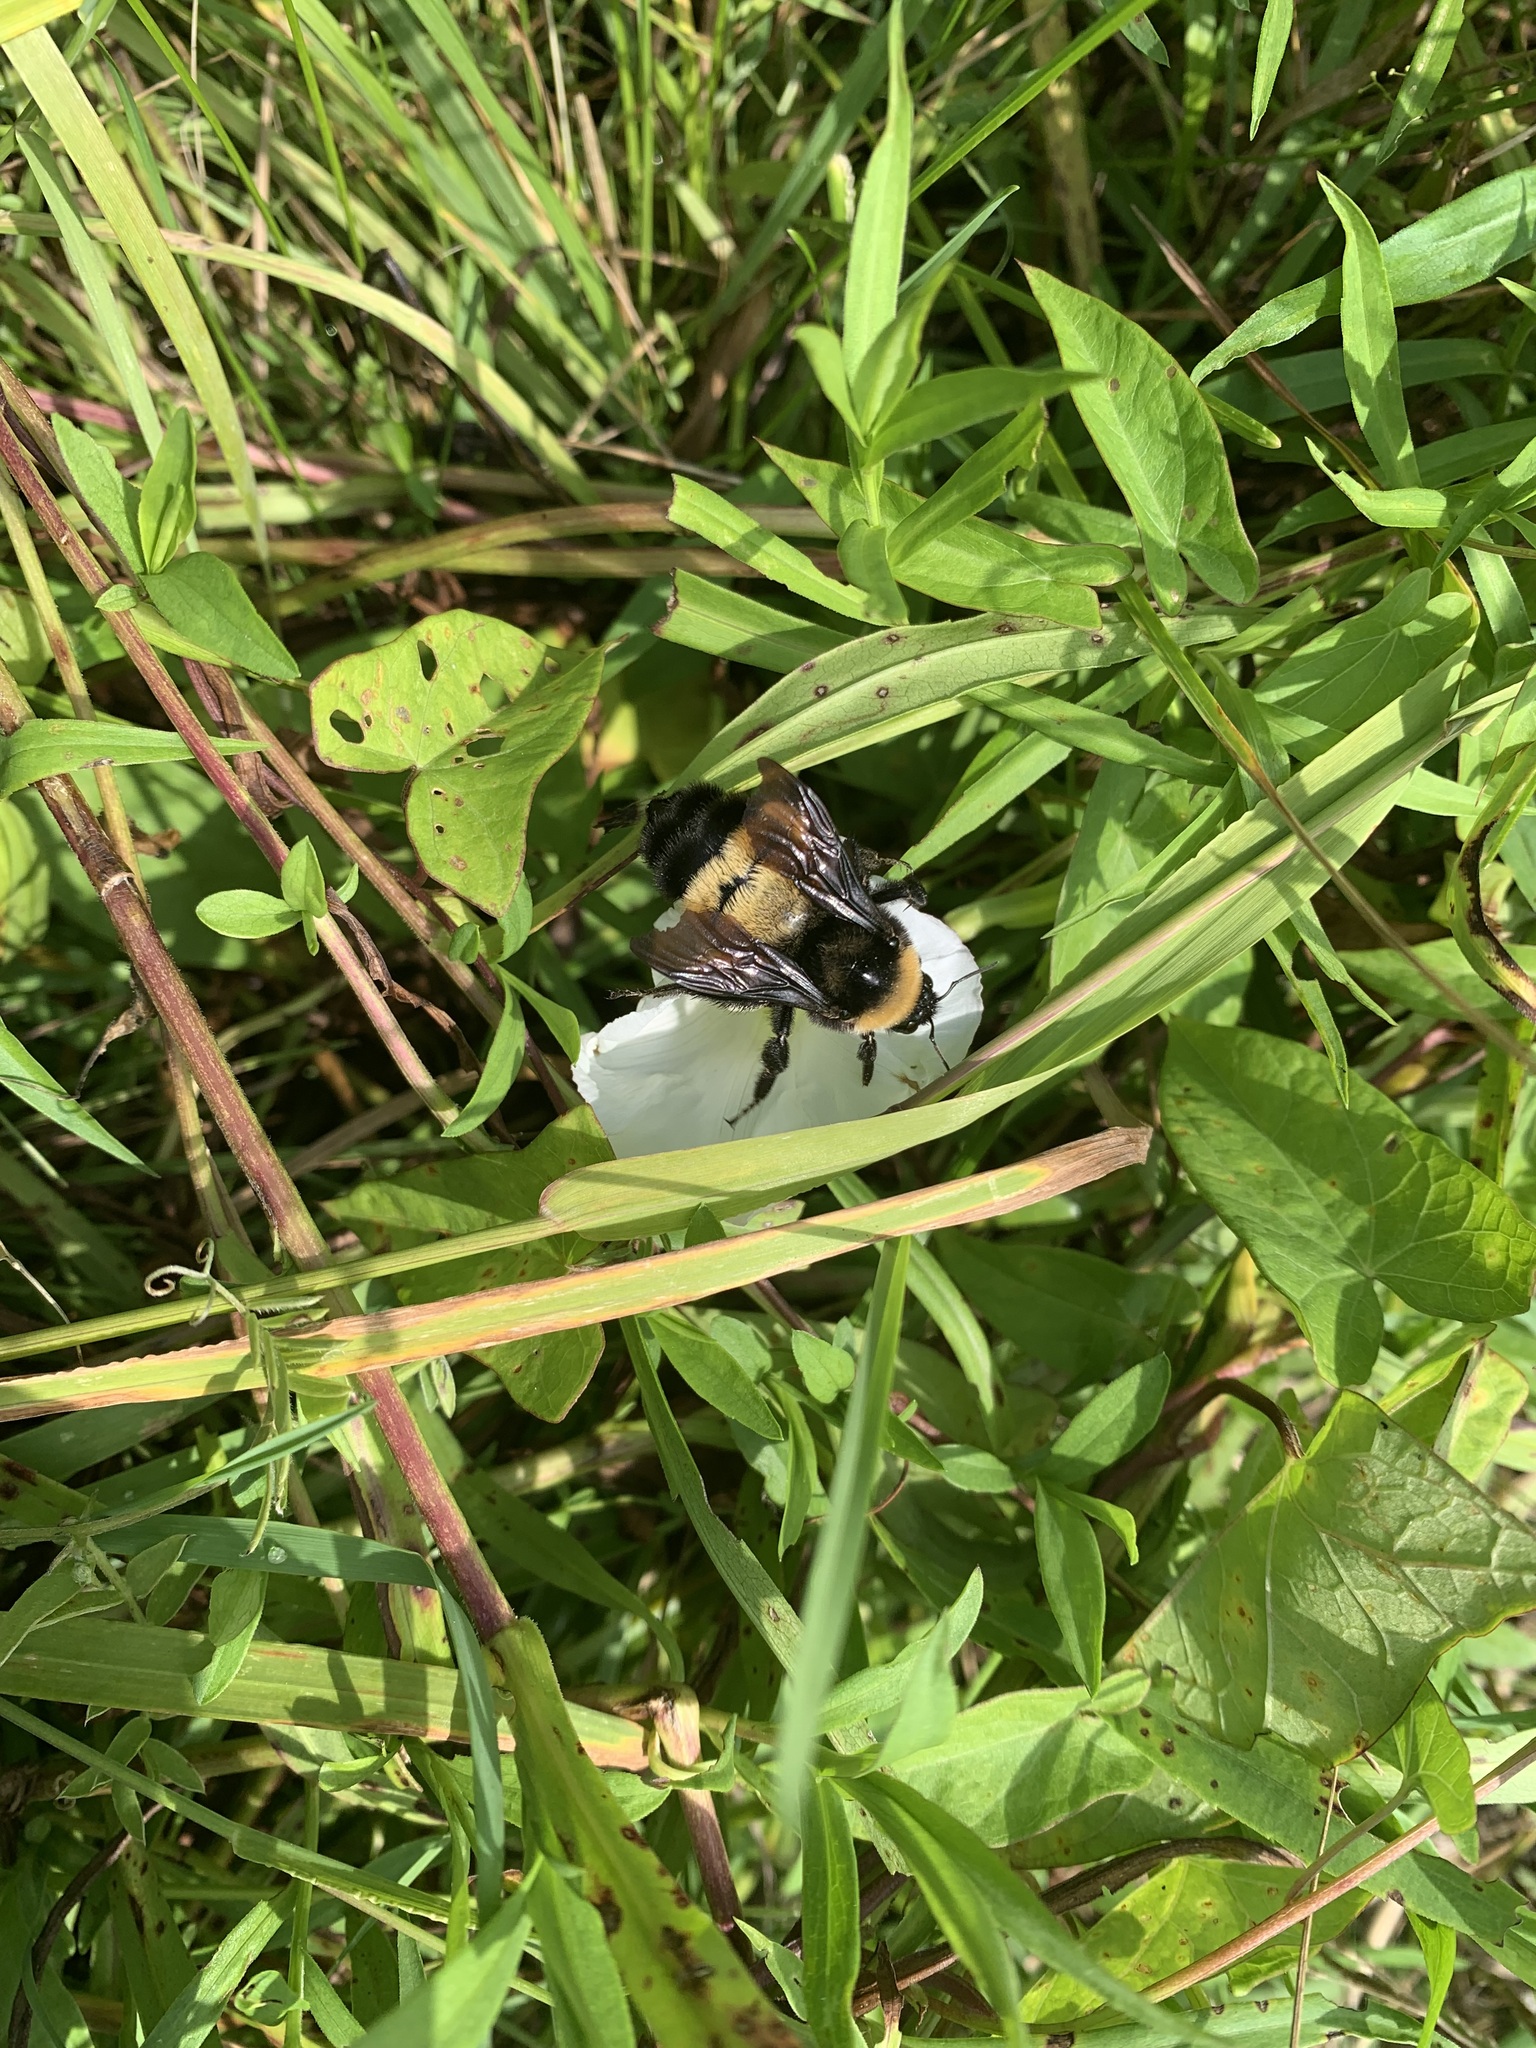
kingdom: Animalia
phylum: Arthropoda
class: Insecta
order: Hymenoptera
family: Apidae
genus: Bombus
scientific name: Bombus pensylvanicus
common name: Bumble bee
